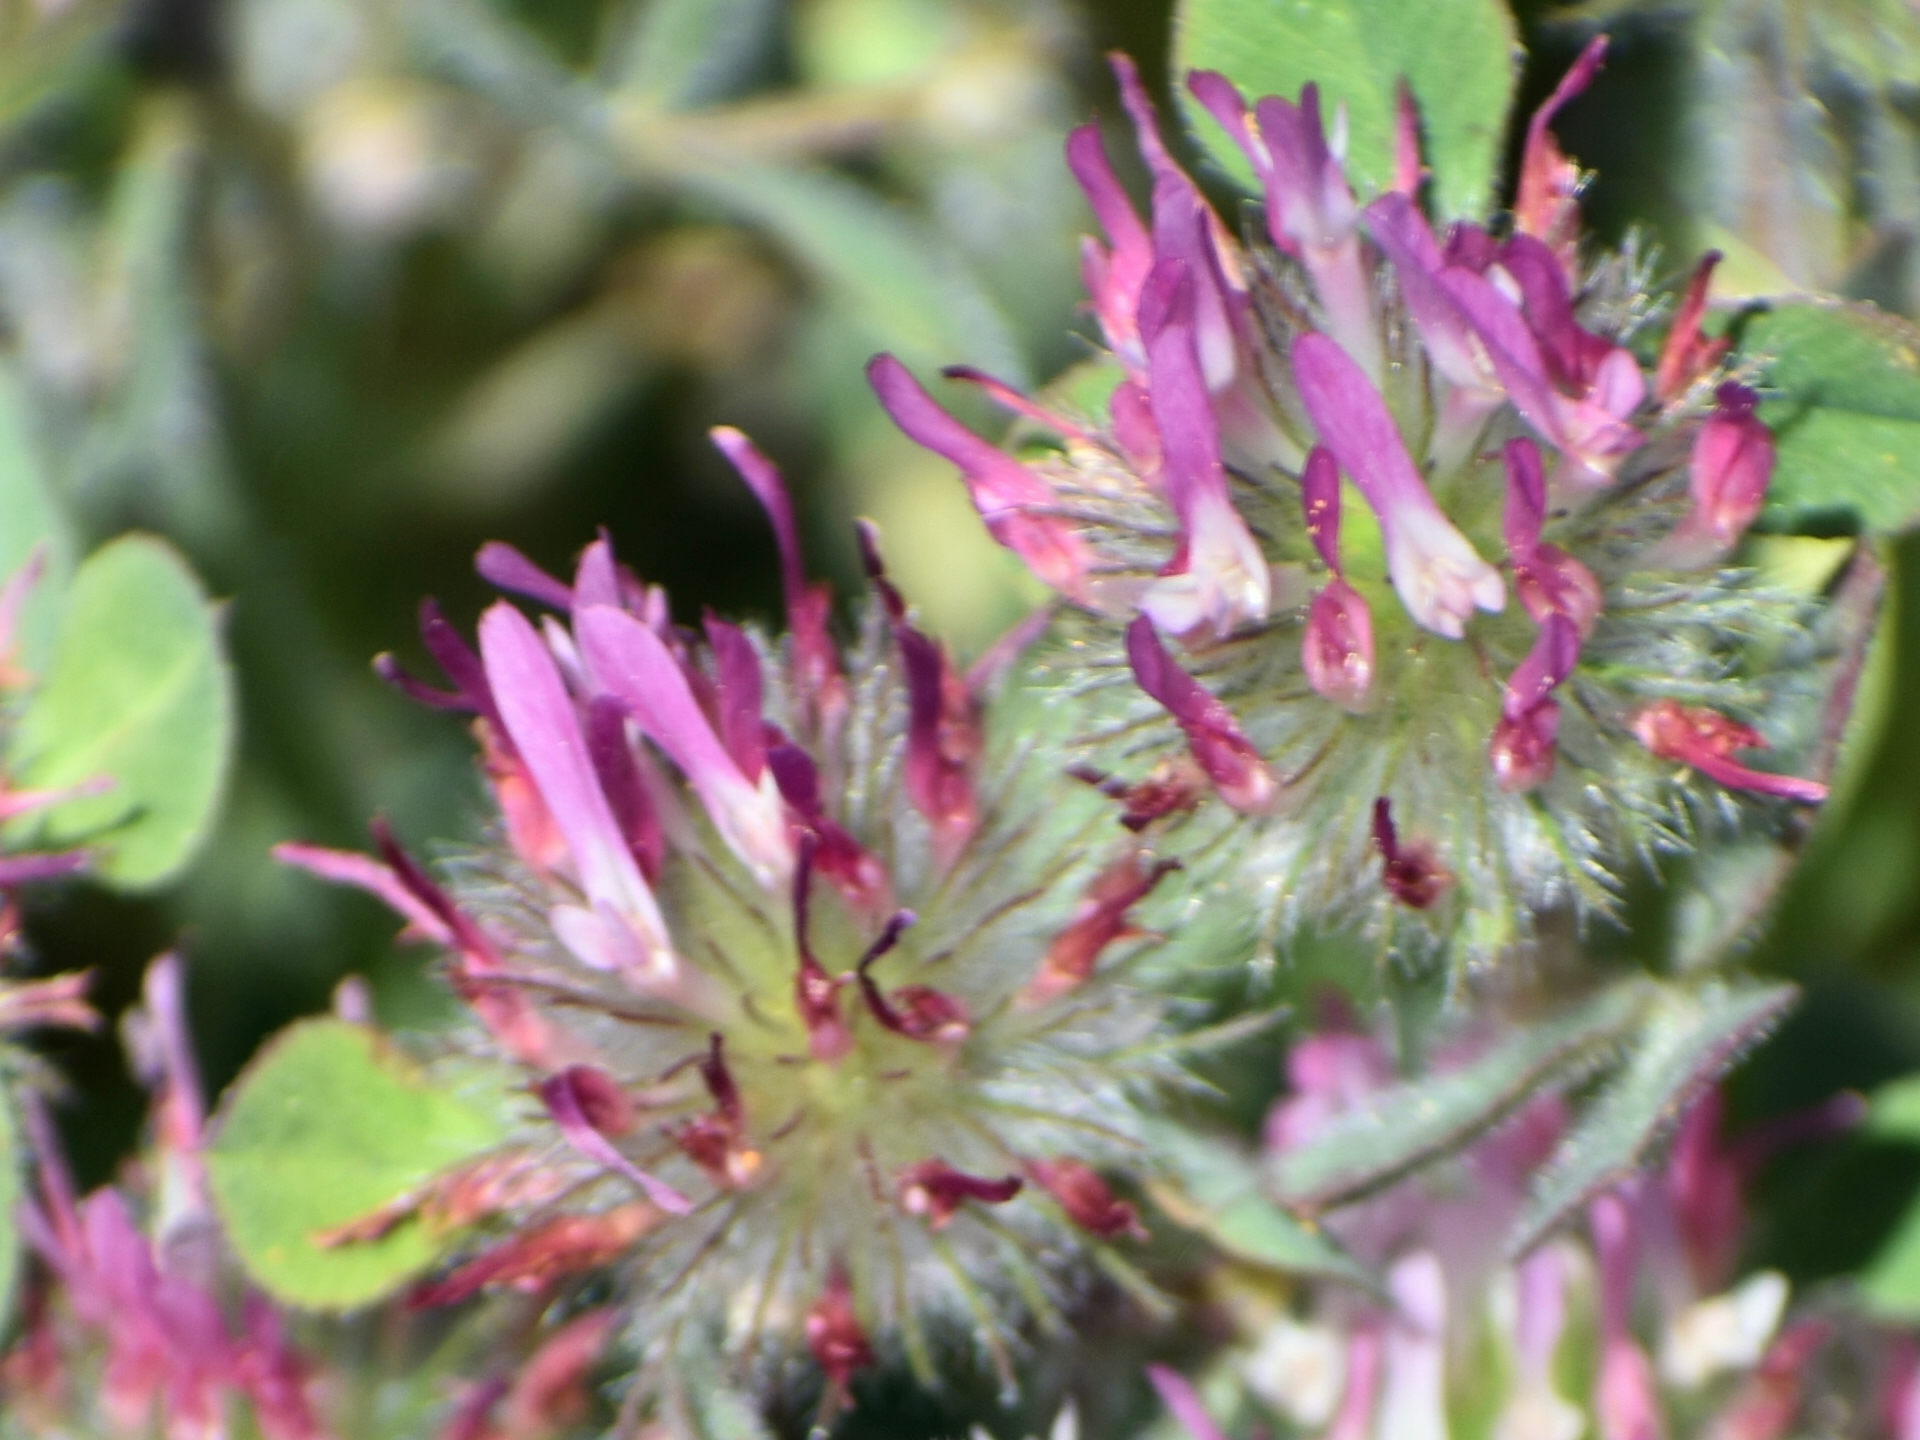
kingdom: Plantae
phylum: Tracheophyta
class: Magnoliopsida
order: Fabales
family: Fabaceae
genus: Trifolium
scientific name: Trifolium hirtum
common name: Rose clover
